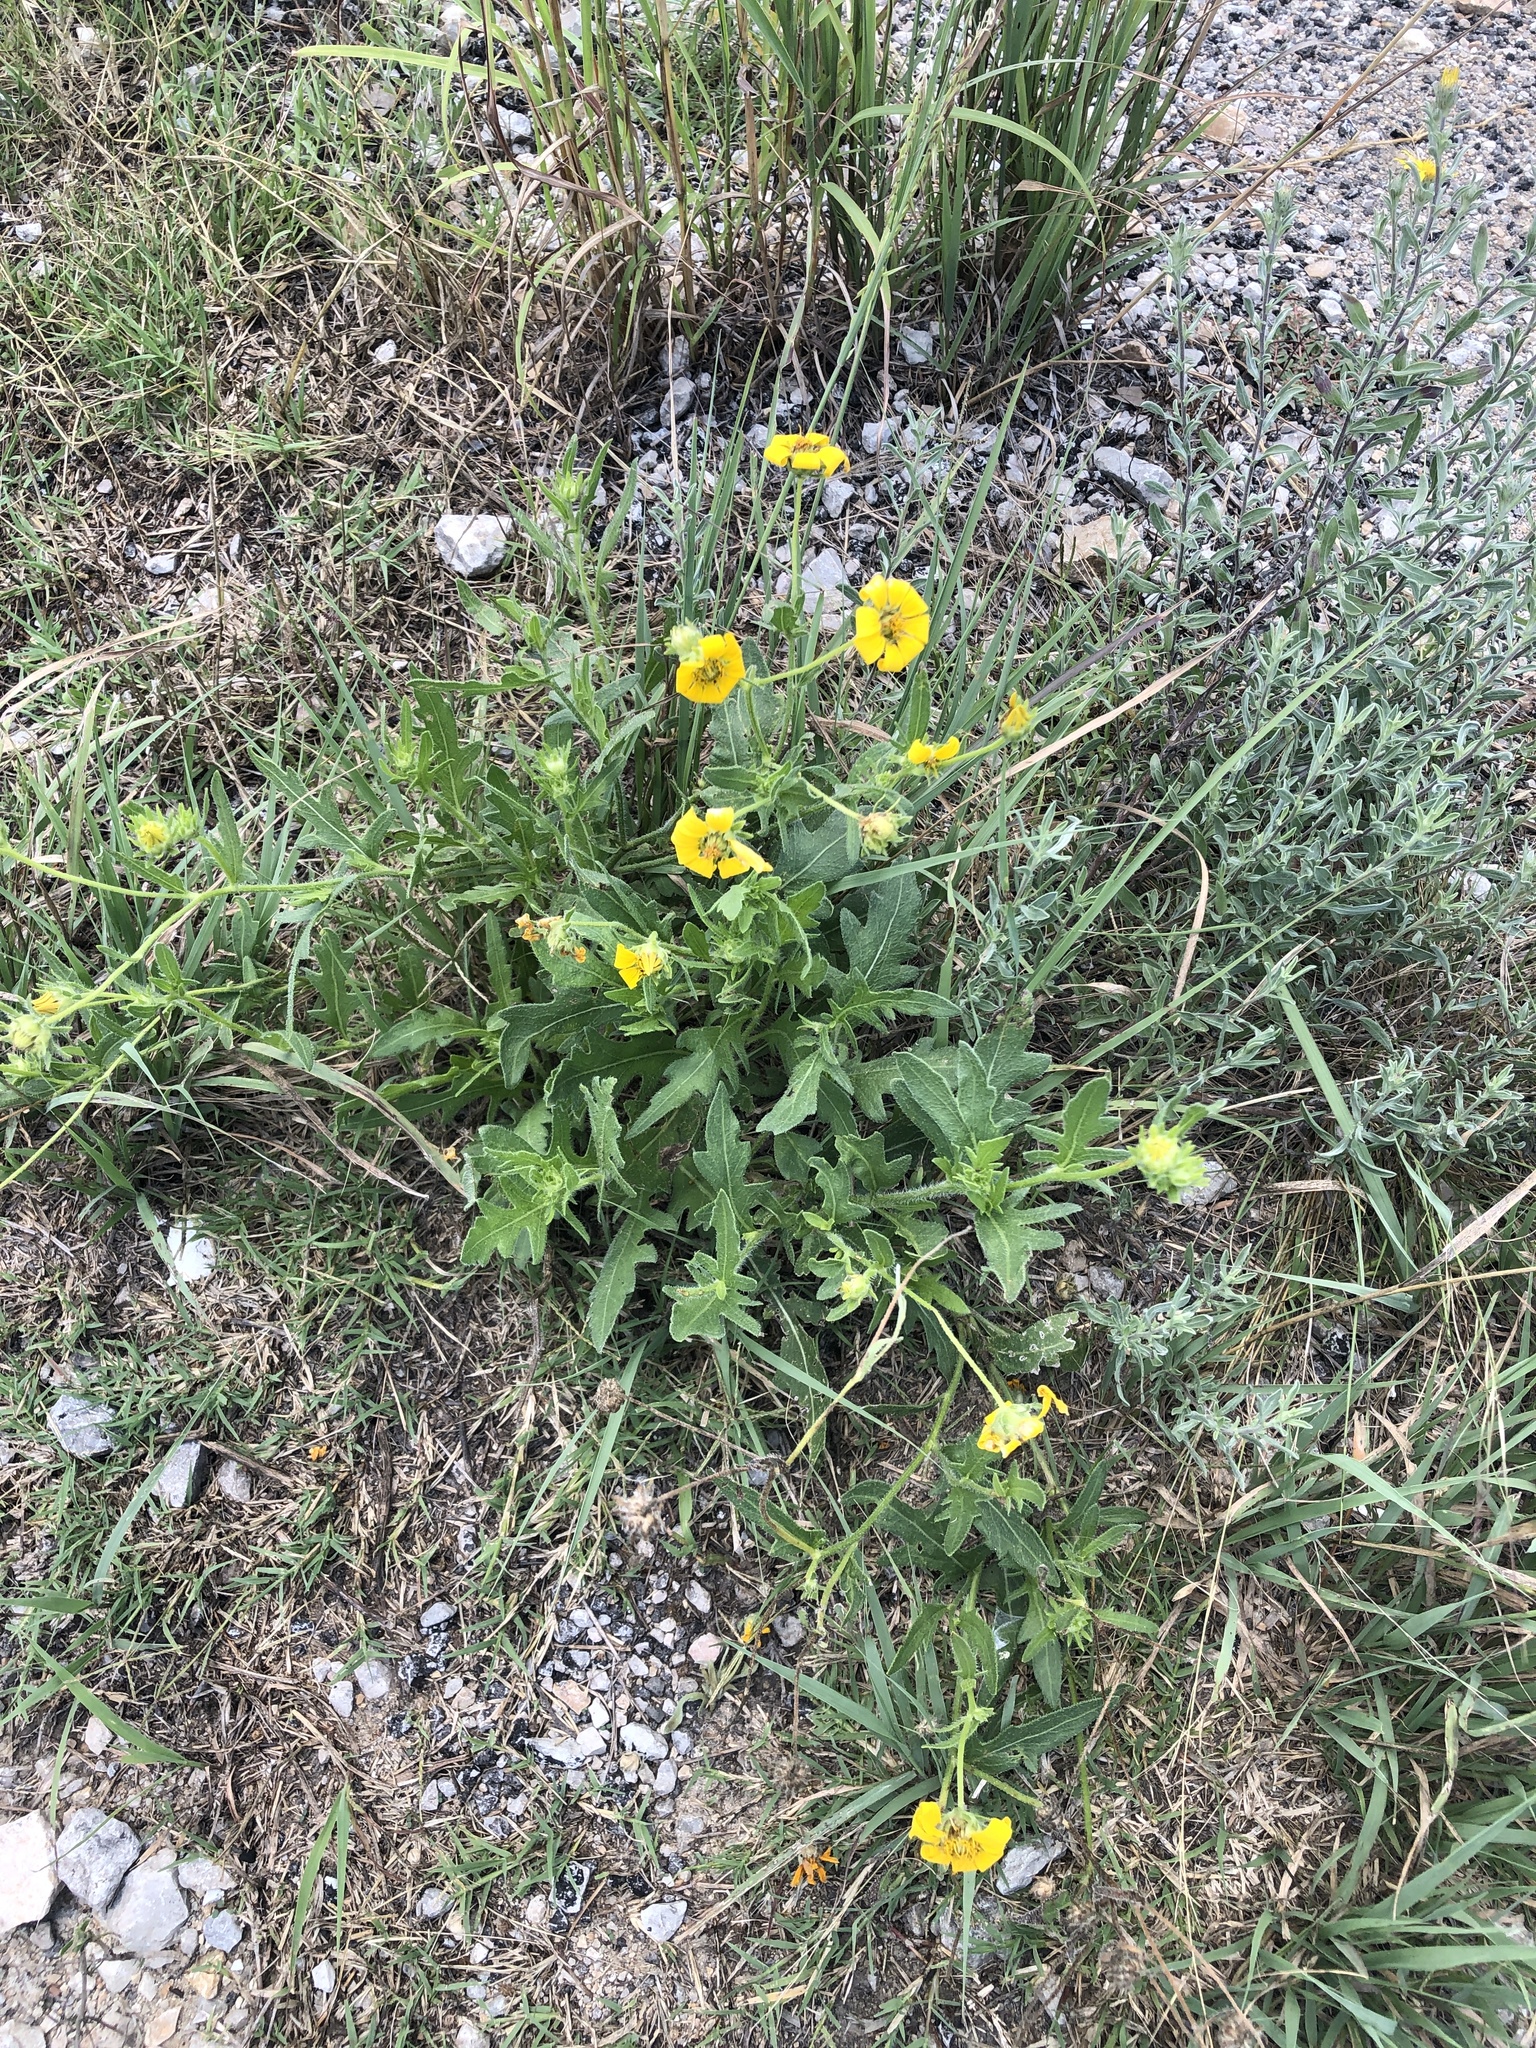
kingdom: Plantae
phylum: Tracheophyta
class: Magnoliopsida
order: Asterales
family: Asteraceae
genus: Engelmannia
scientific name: Engelmannia peristenia
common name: Engelmann's daisy
